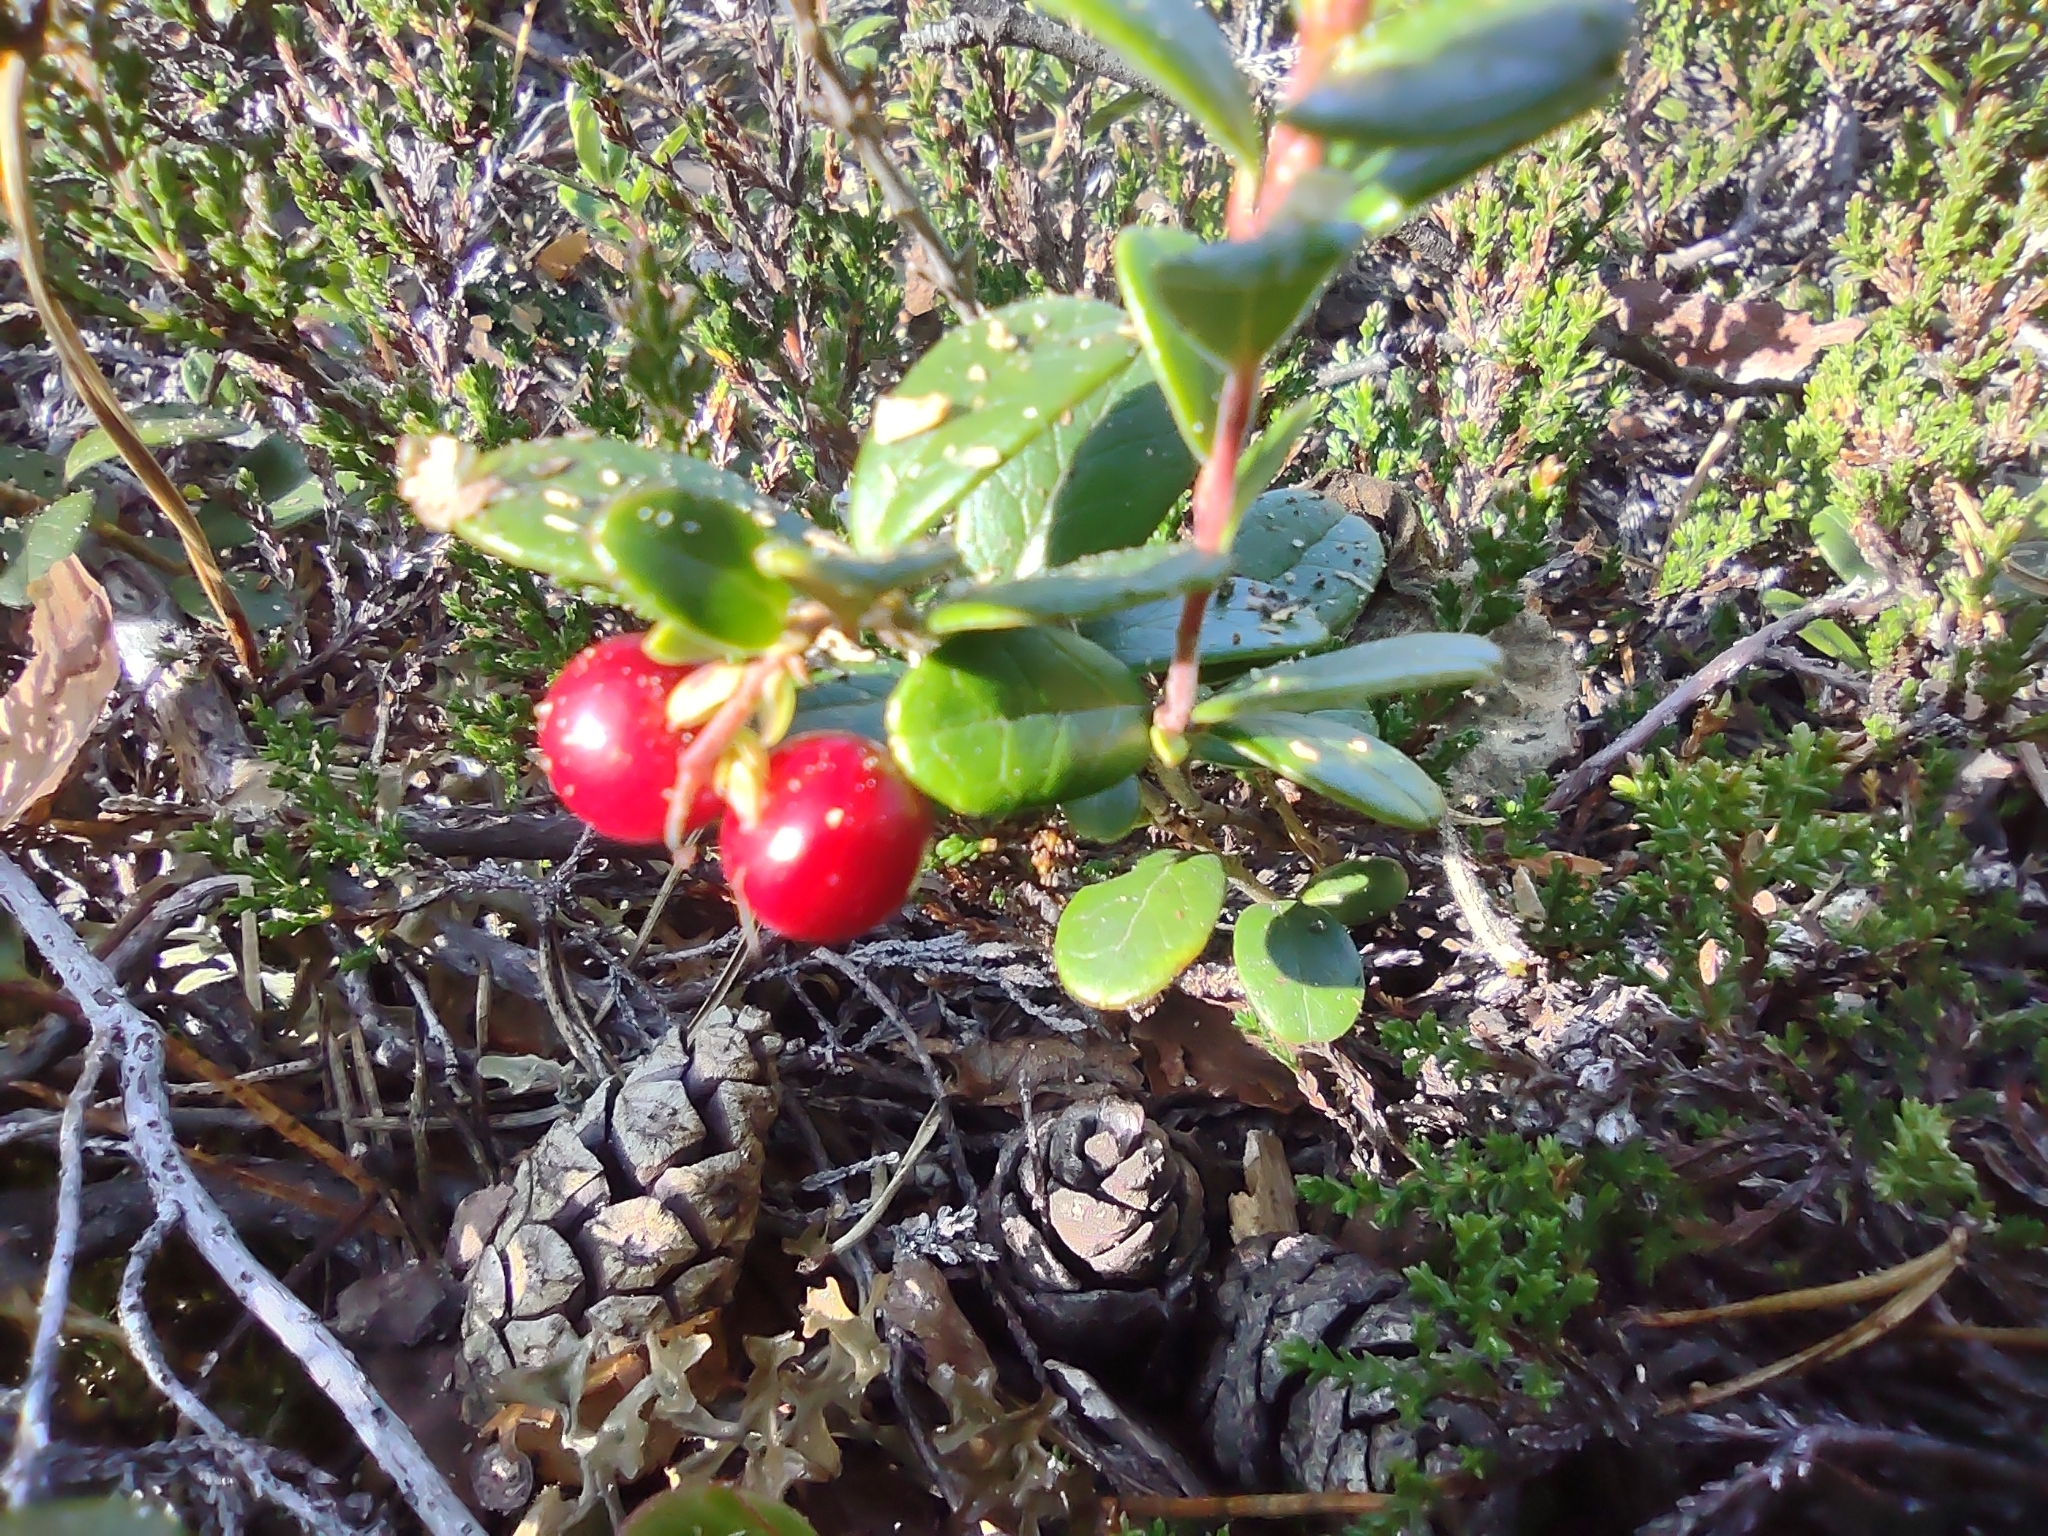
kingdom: Plantae
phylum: Tracheophyta
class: Magnoliopsida
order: Ericales
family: Ericaceae
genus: Vaccinium
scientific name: Vaccinium vitis-idaea
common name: Cowberry
